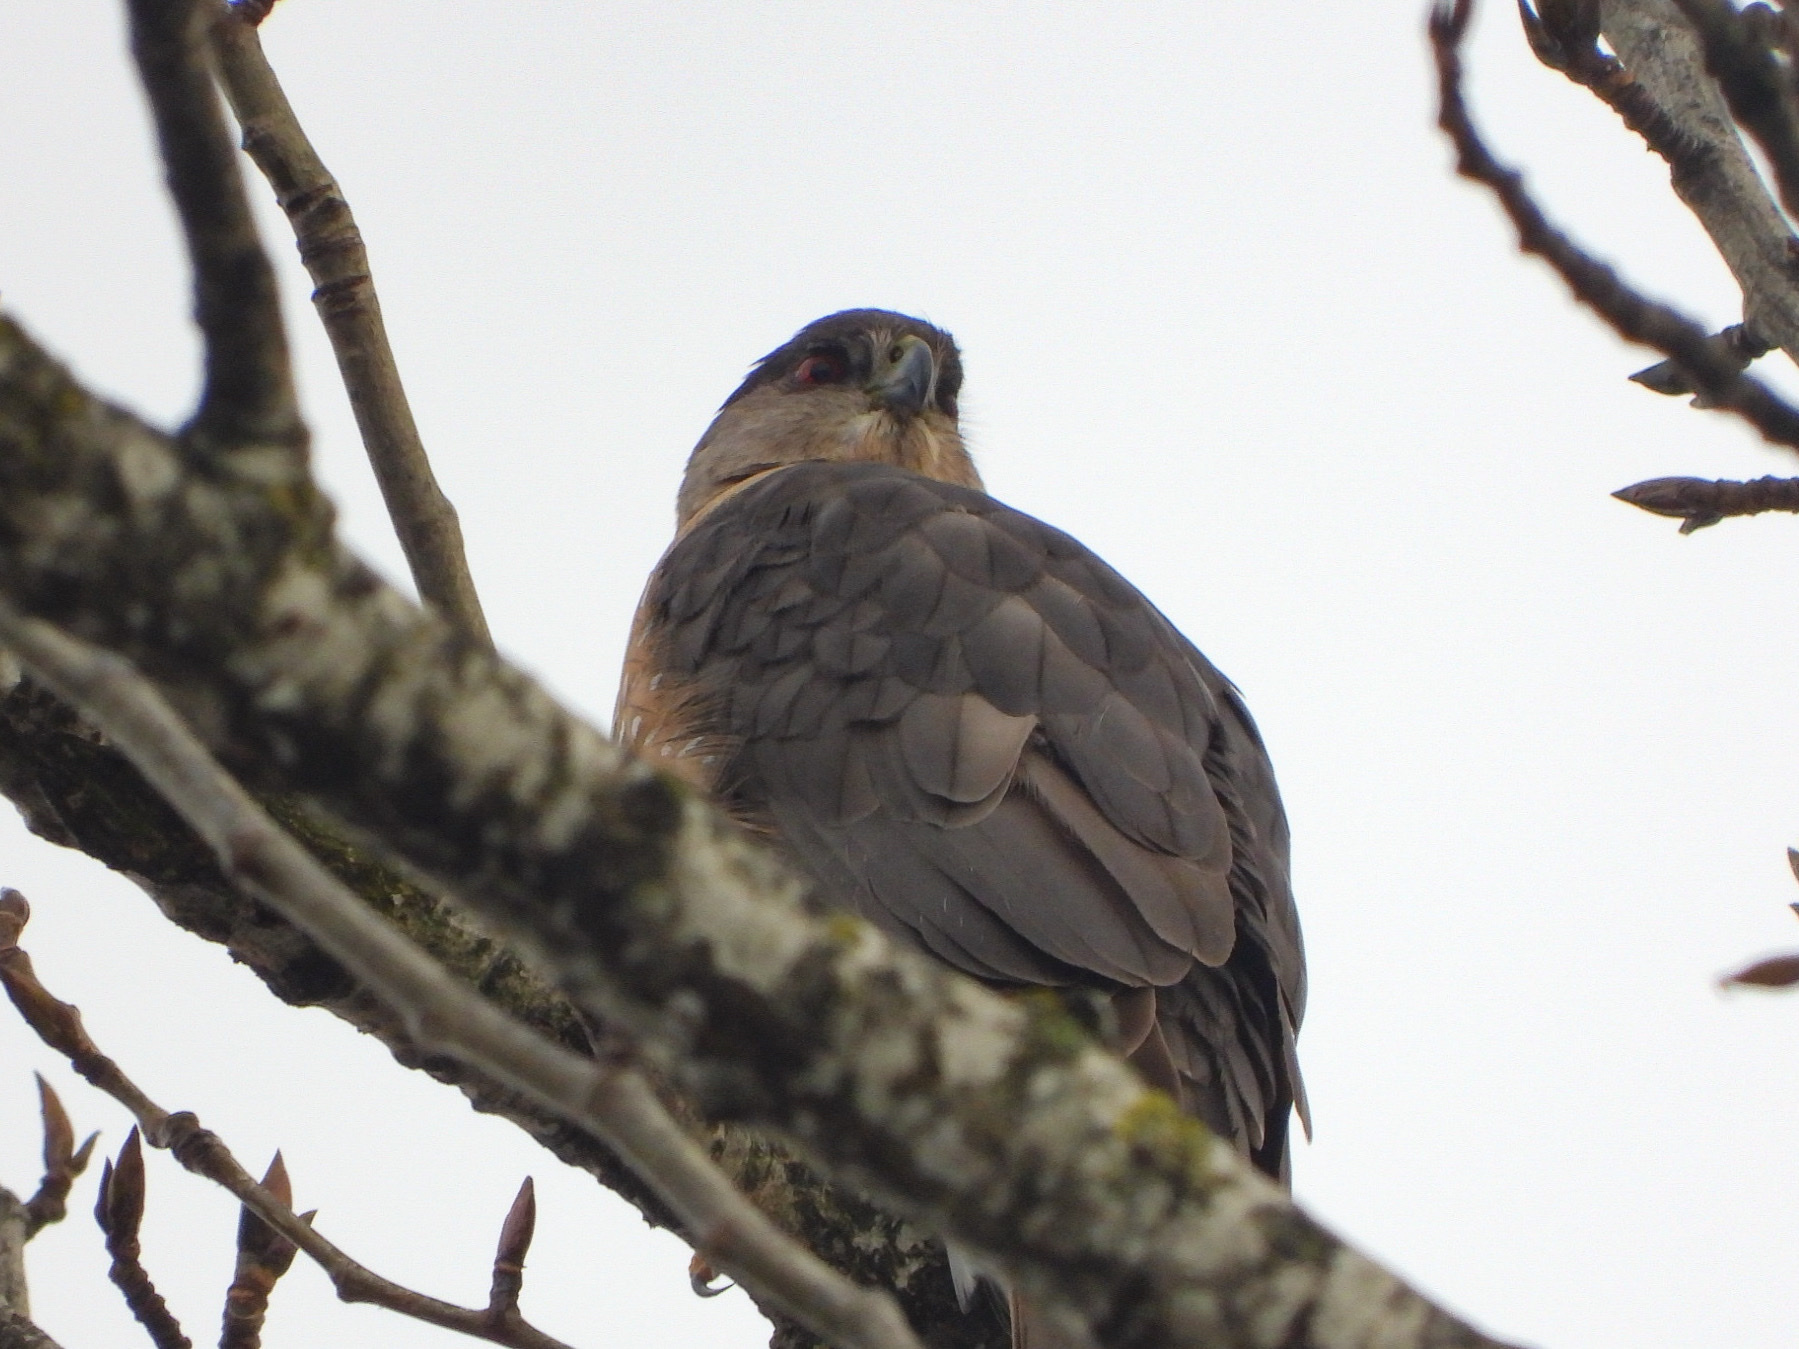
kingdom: Animalia
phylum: Chordata
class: Aves
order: Accipitriformes
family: Accipitridae
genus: Accipiter
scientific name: Accipiter cooperii
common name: Cooper's hawk
